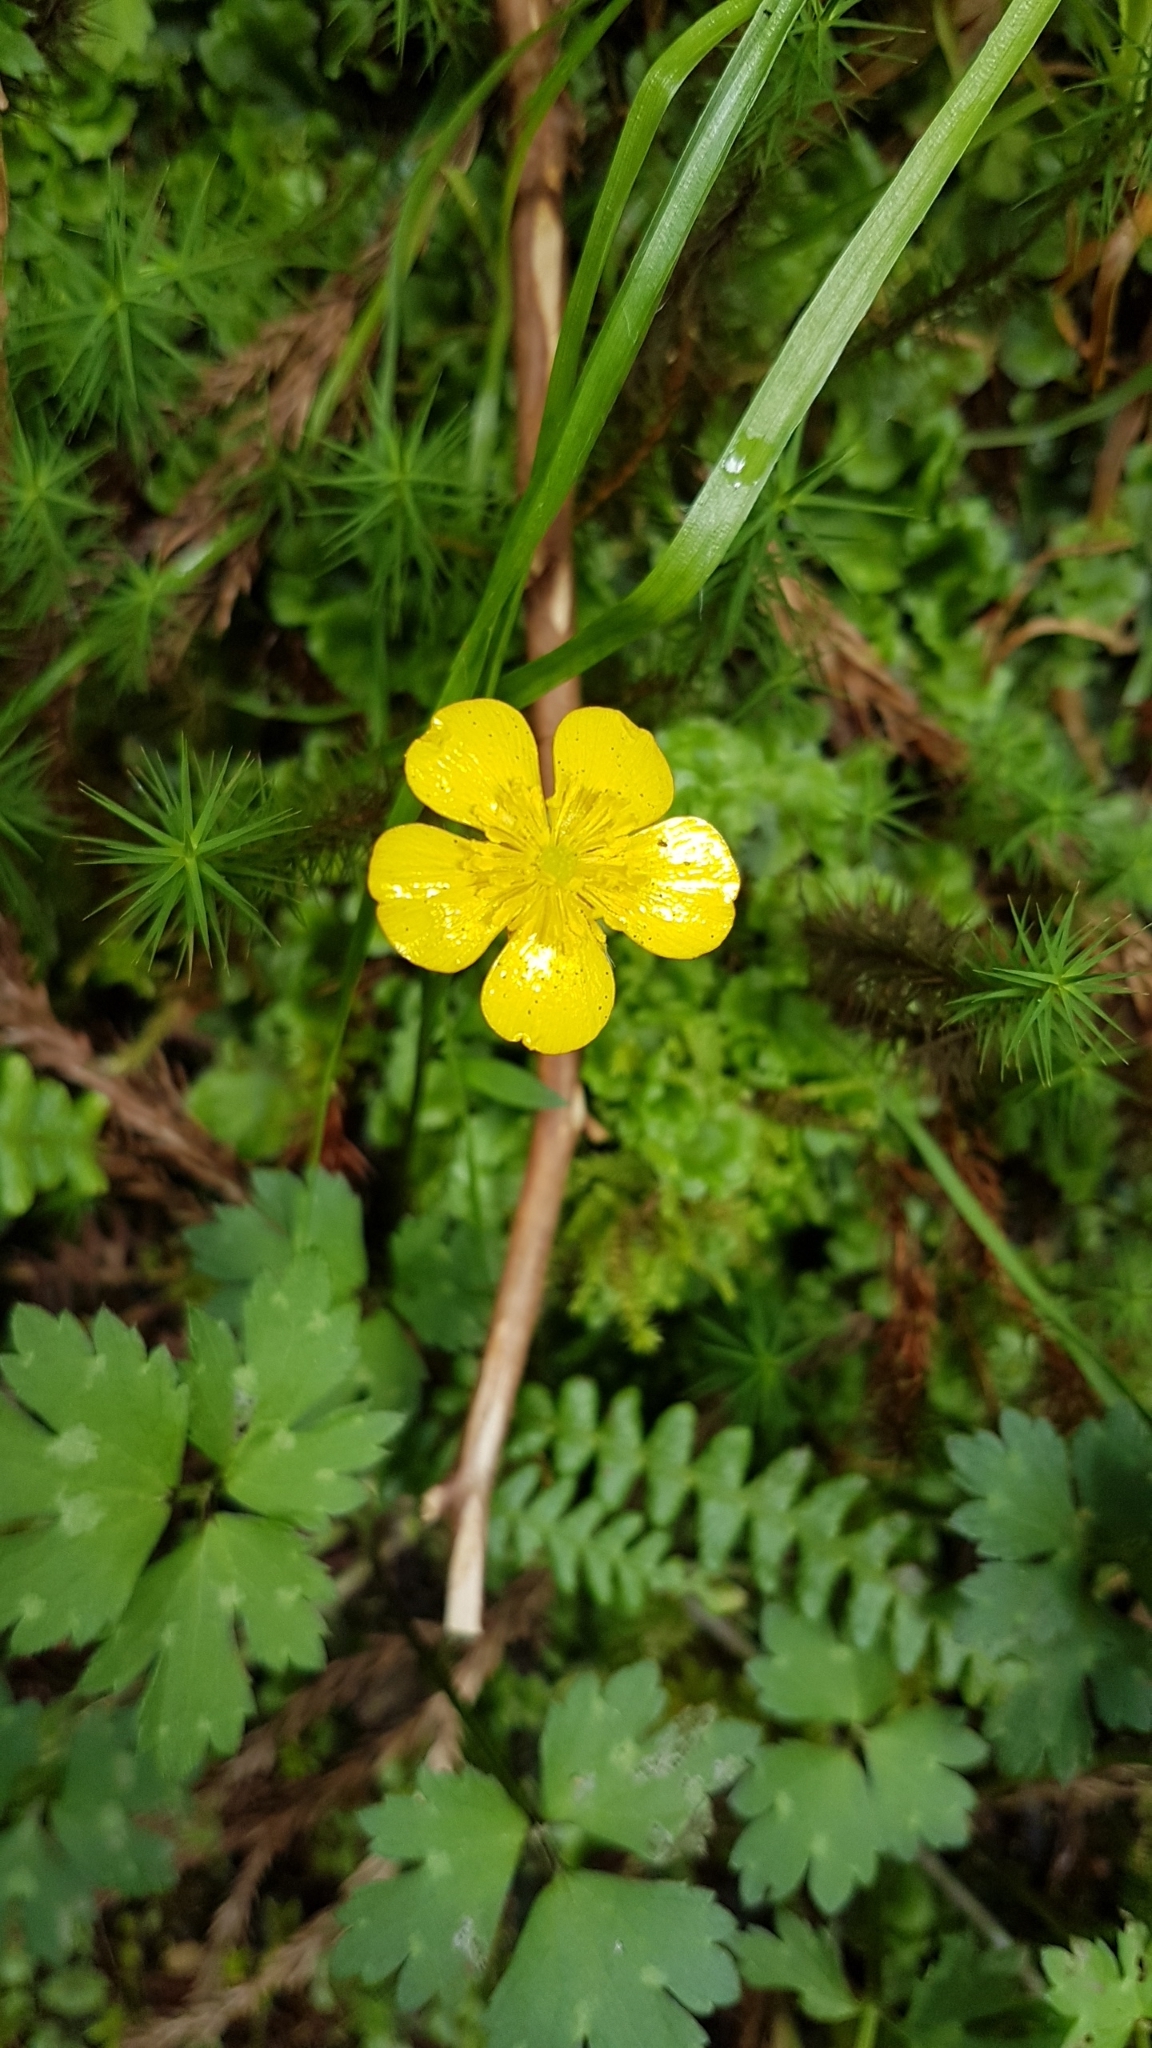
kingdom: Plantae
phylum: Tracheophyta
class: Magnoliopsida
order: Ranunculales
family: Ranunculaceae
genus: Ranunculus
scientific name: Ranunculus repens
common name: Creeping buttercup
